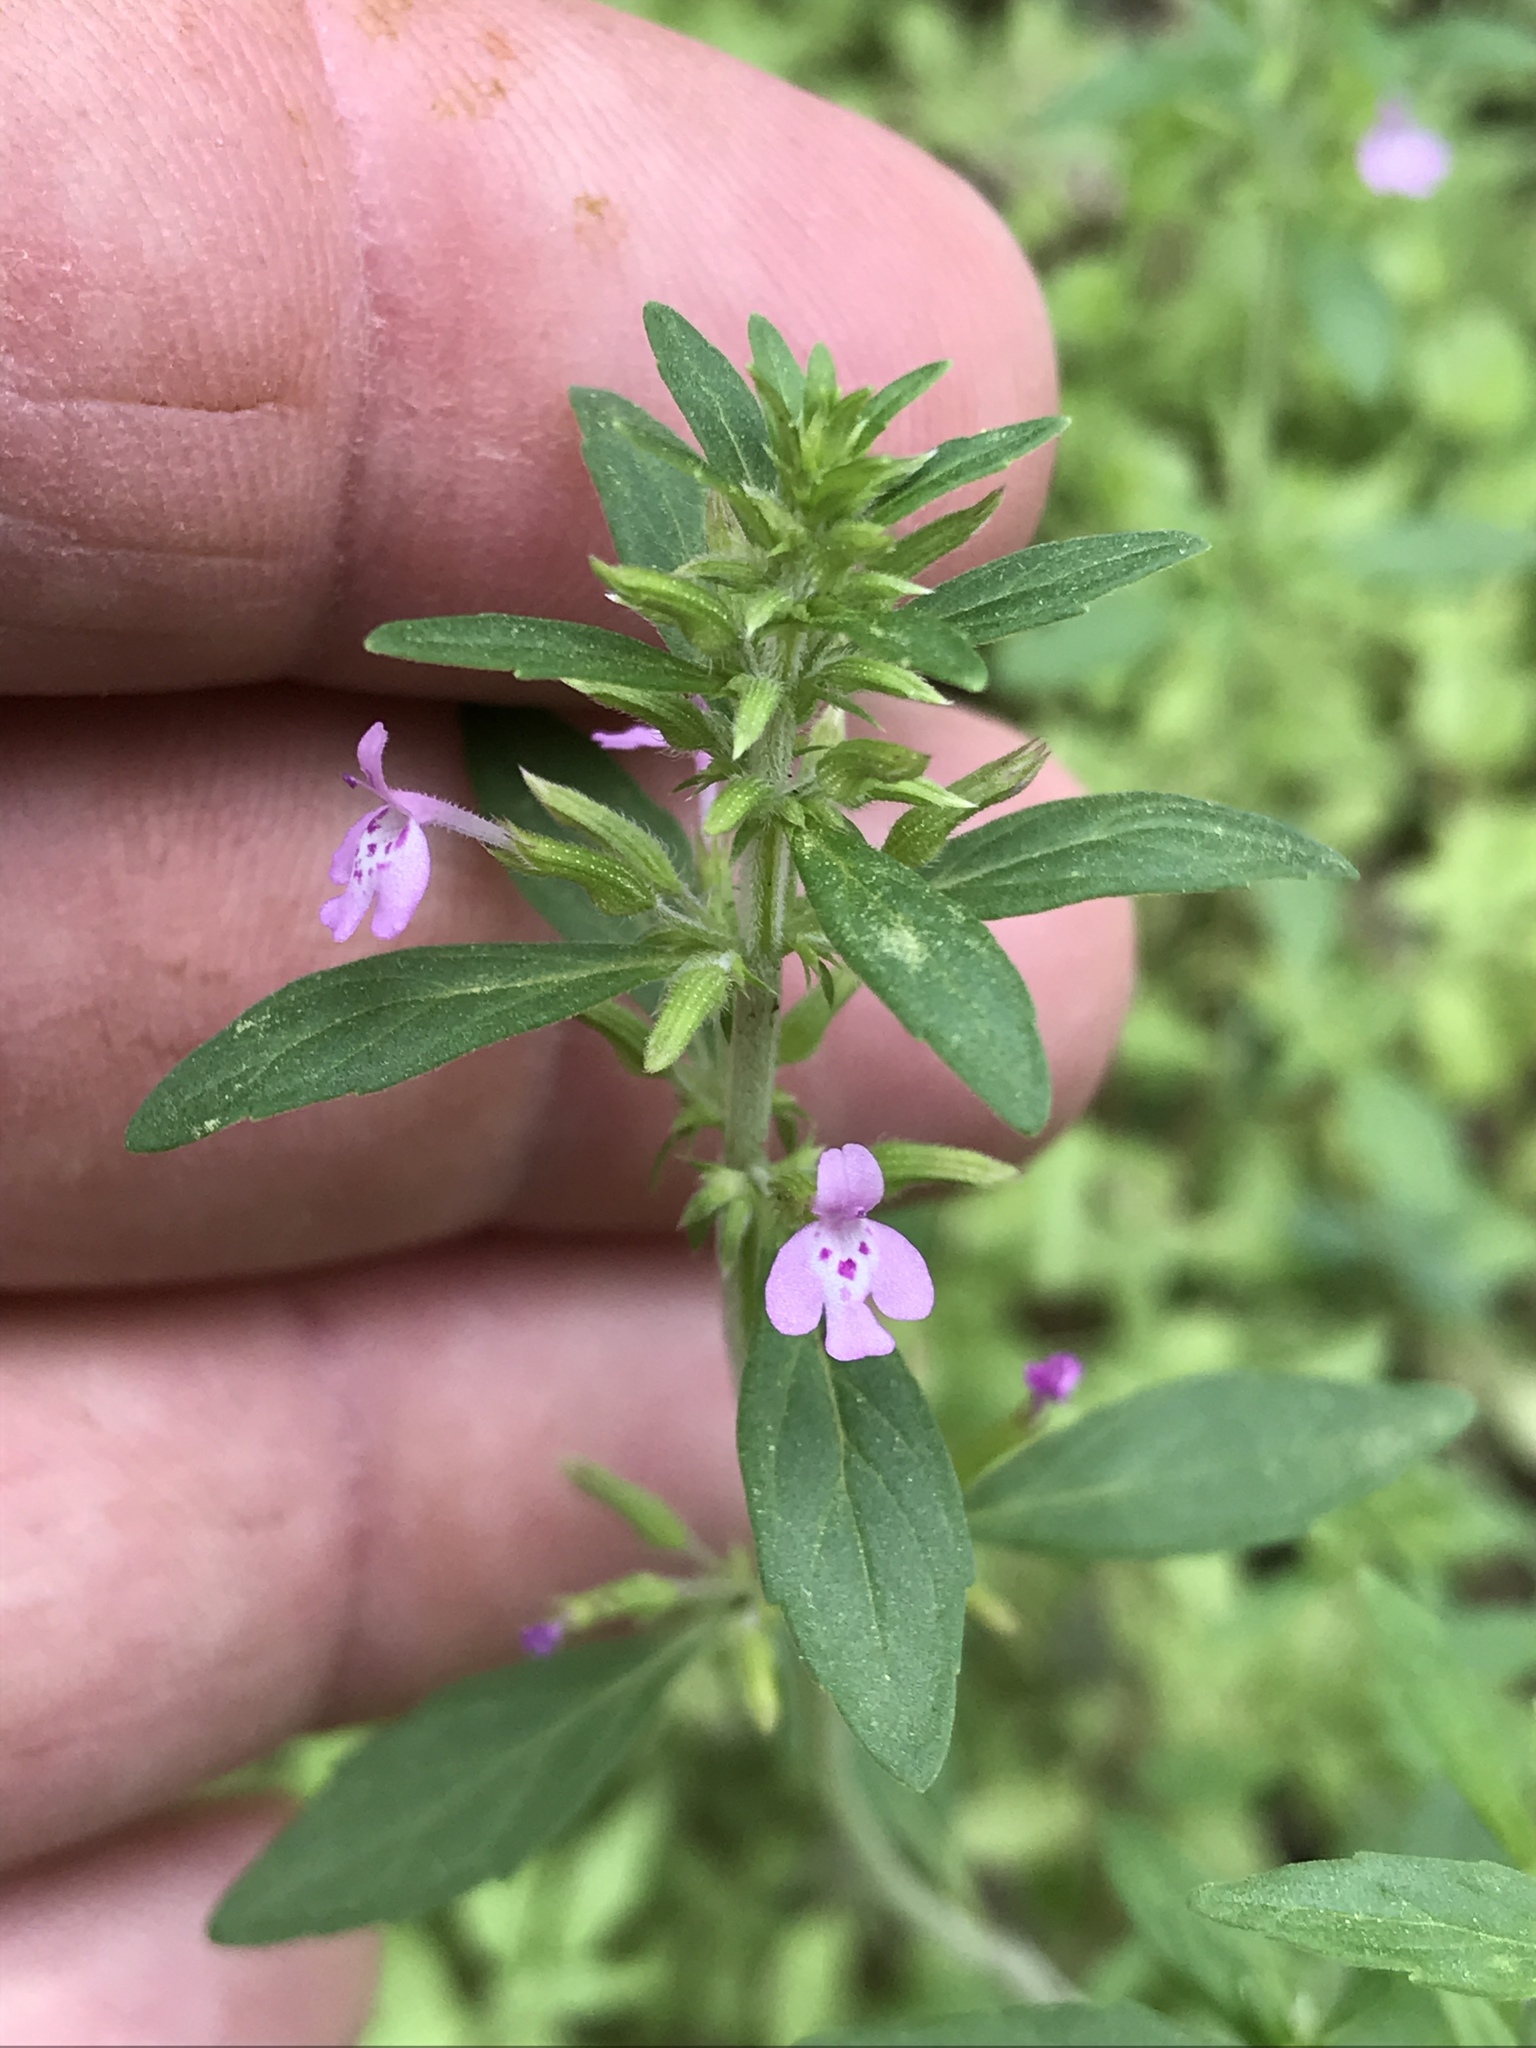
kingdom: Plantae
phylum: Tracheophyta
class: Magnoliopsida
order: Lamiales
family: Lamiaceae
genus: Hedeoma
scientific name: Hedeoma acinoides
